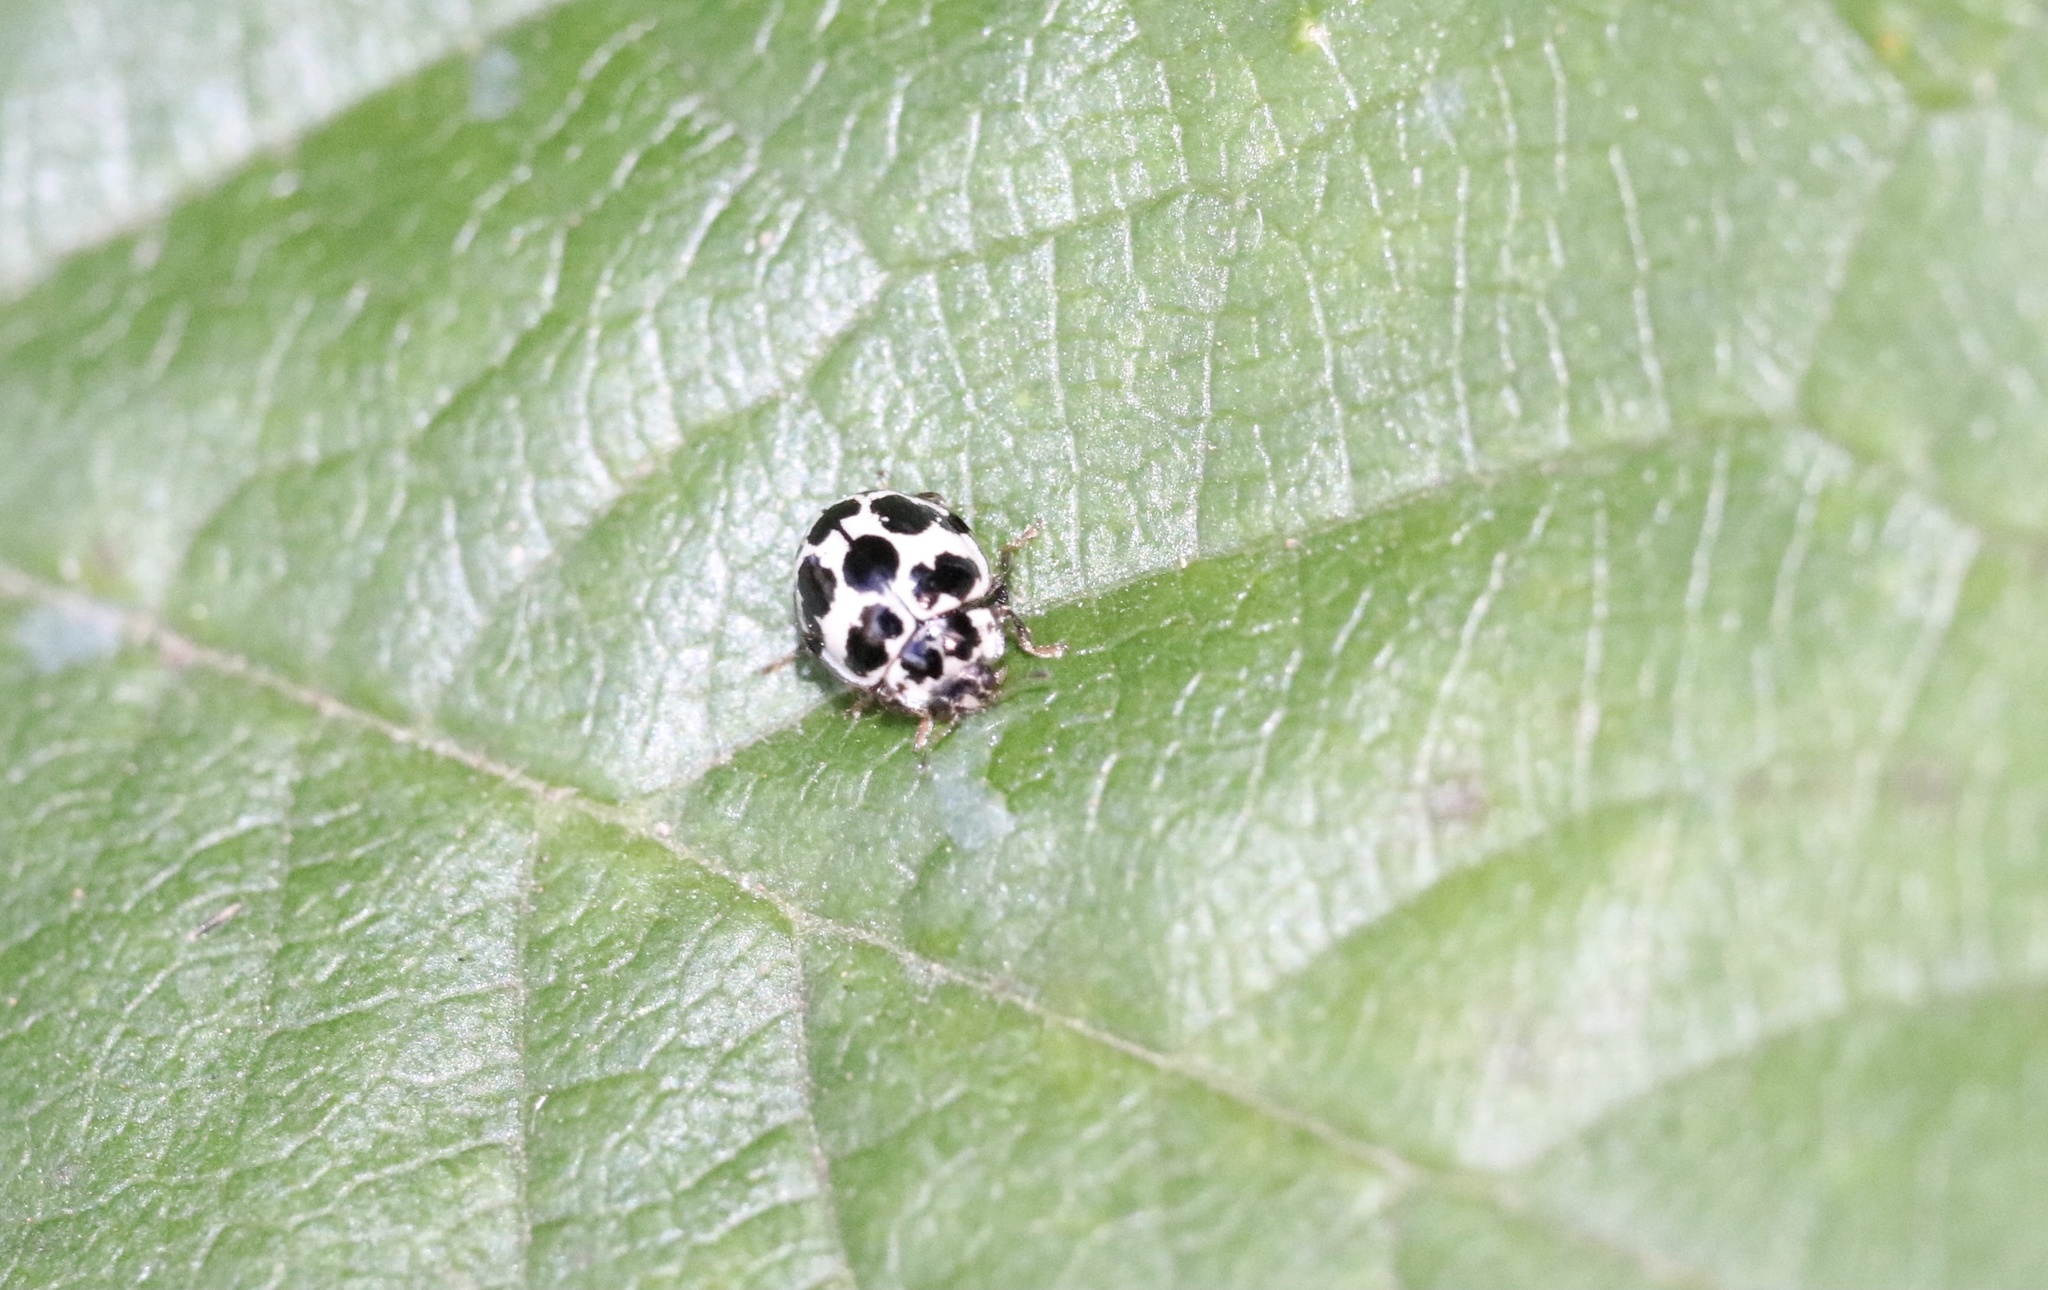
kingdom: Animalia
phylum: Arthropoda
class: Insecta
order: Coleoptera
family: Coccinellidae
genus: Psyllobora
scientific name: Psyllobora
